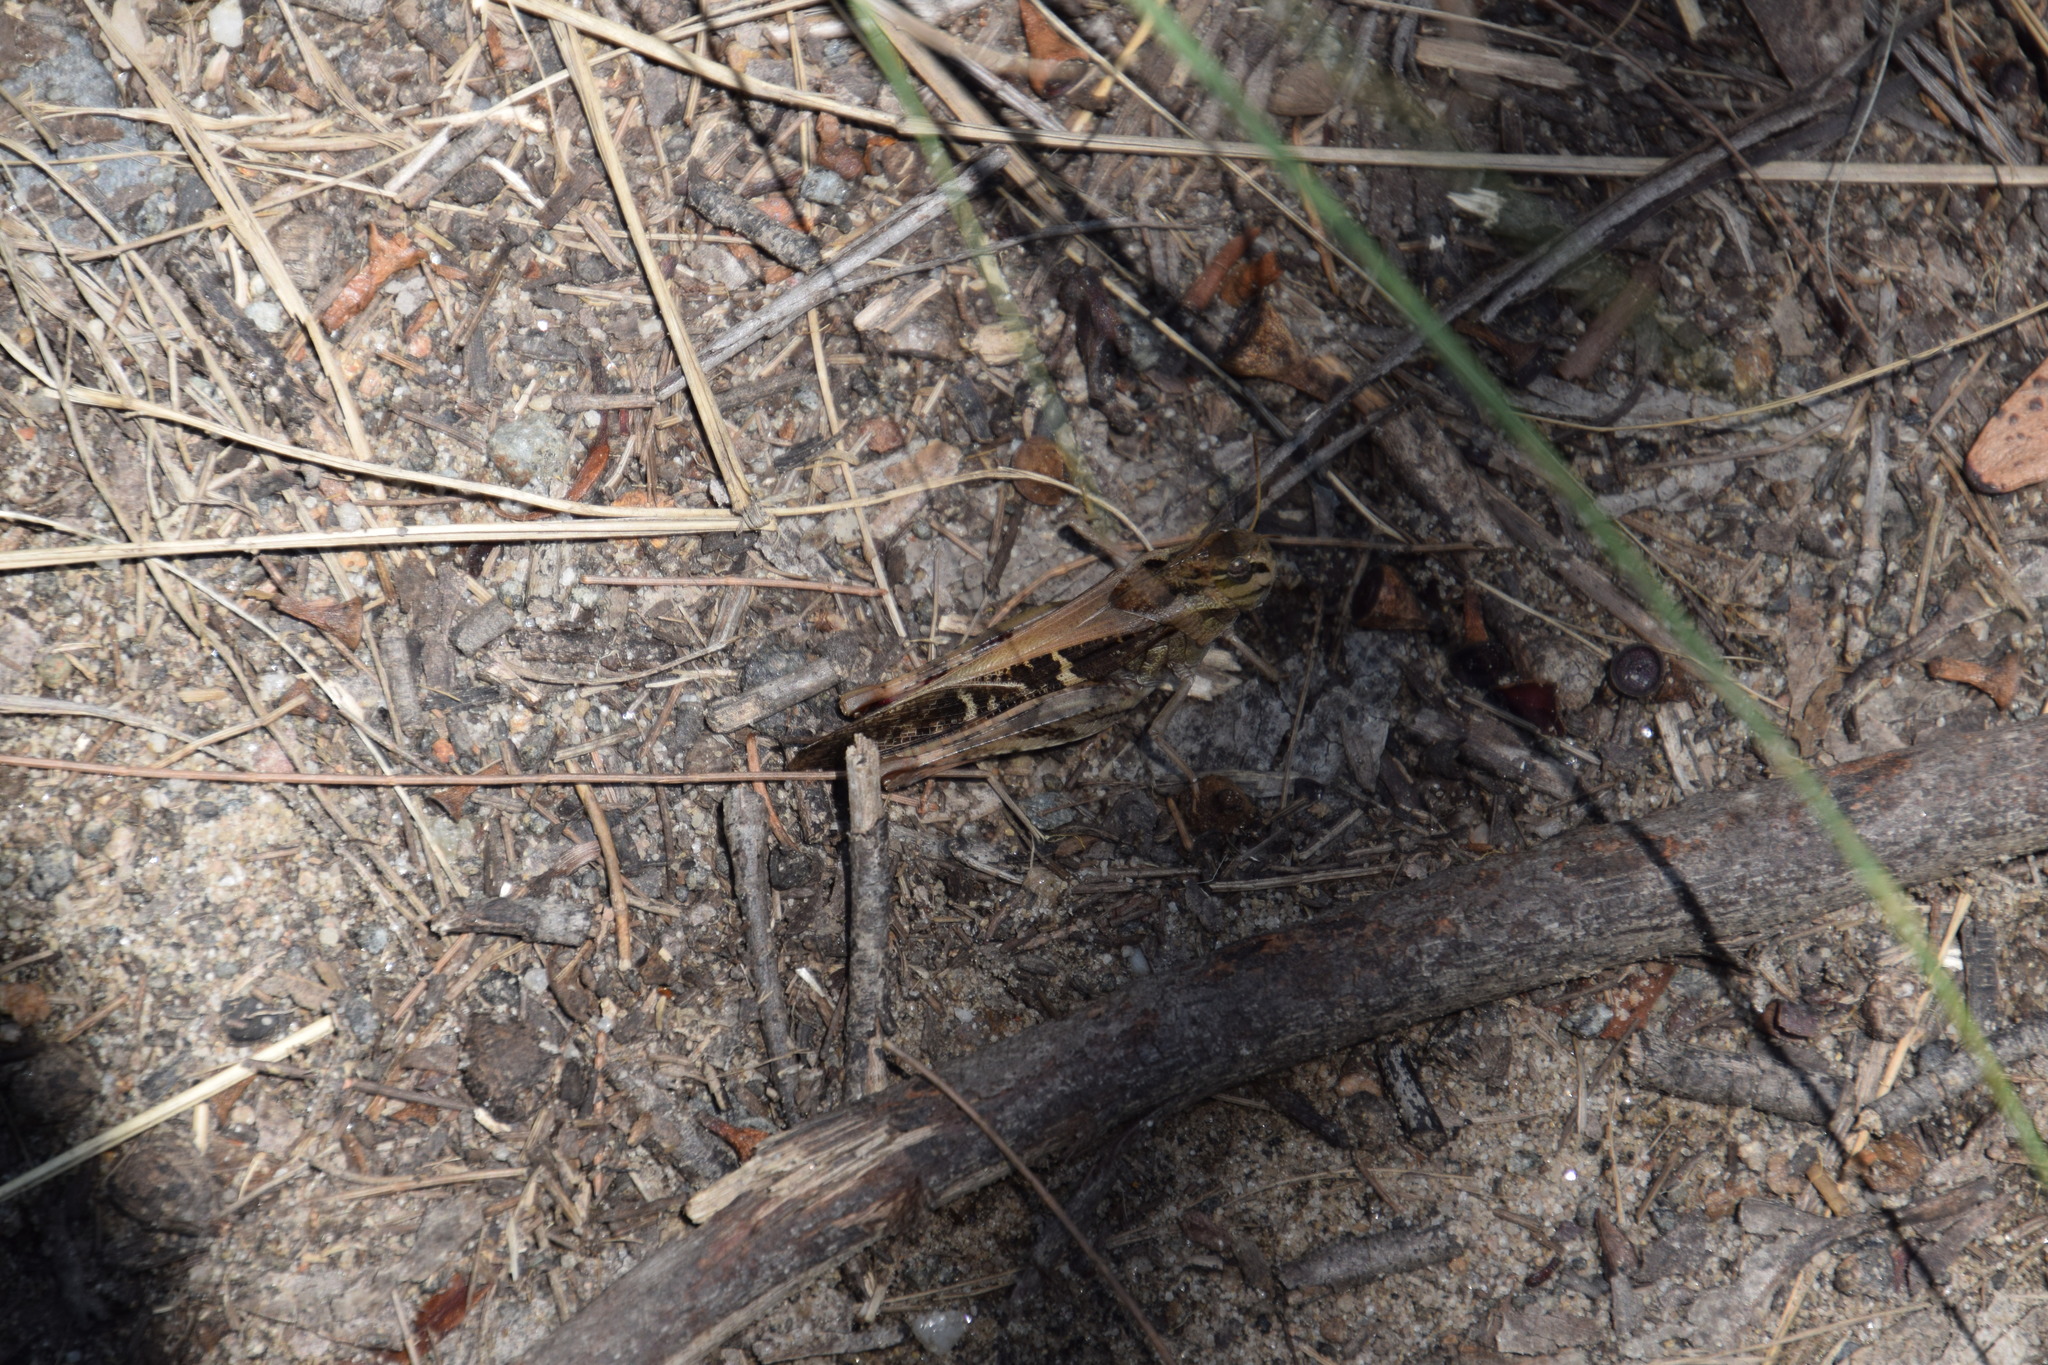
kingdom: Animalia
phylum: Arthropoda
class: Insecta
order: Orthoptera
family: Acrididae
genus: Gastrimargus
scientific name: Gastrimargus musicus
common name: Yellow-winged locust
